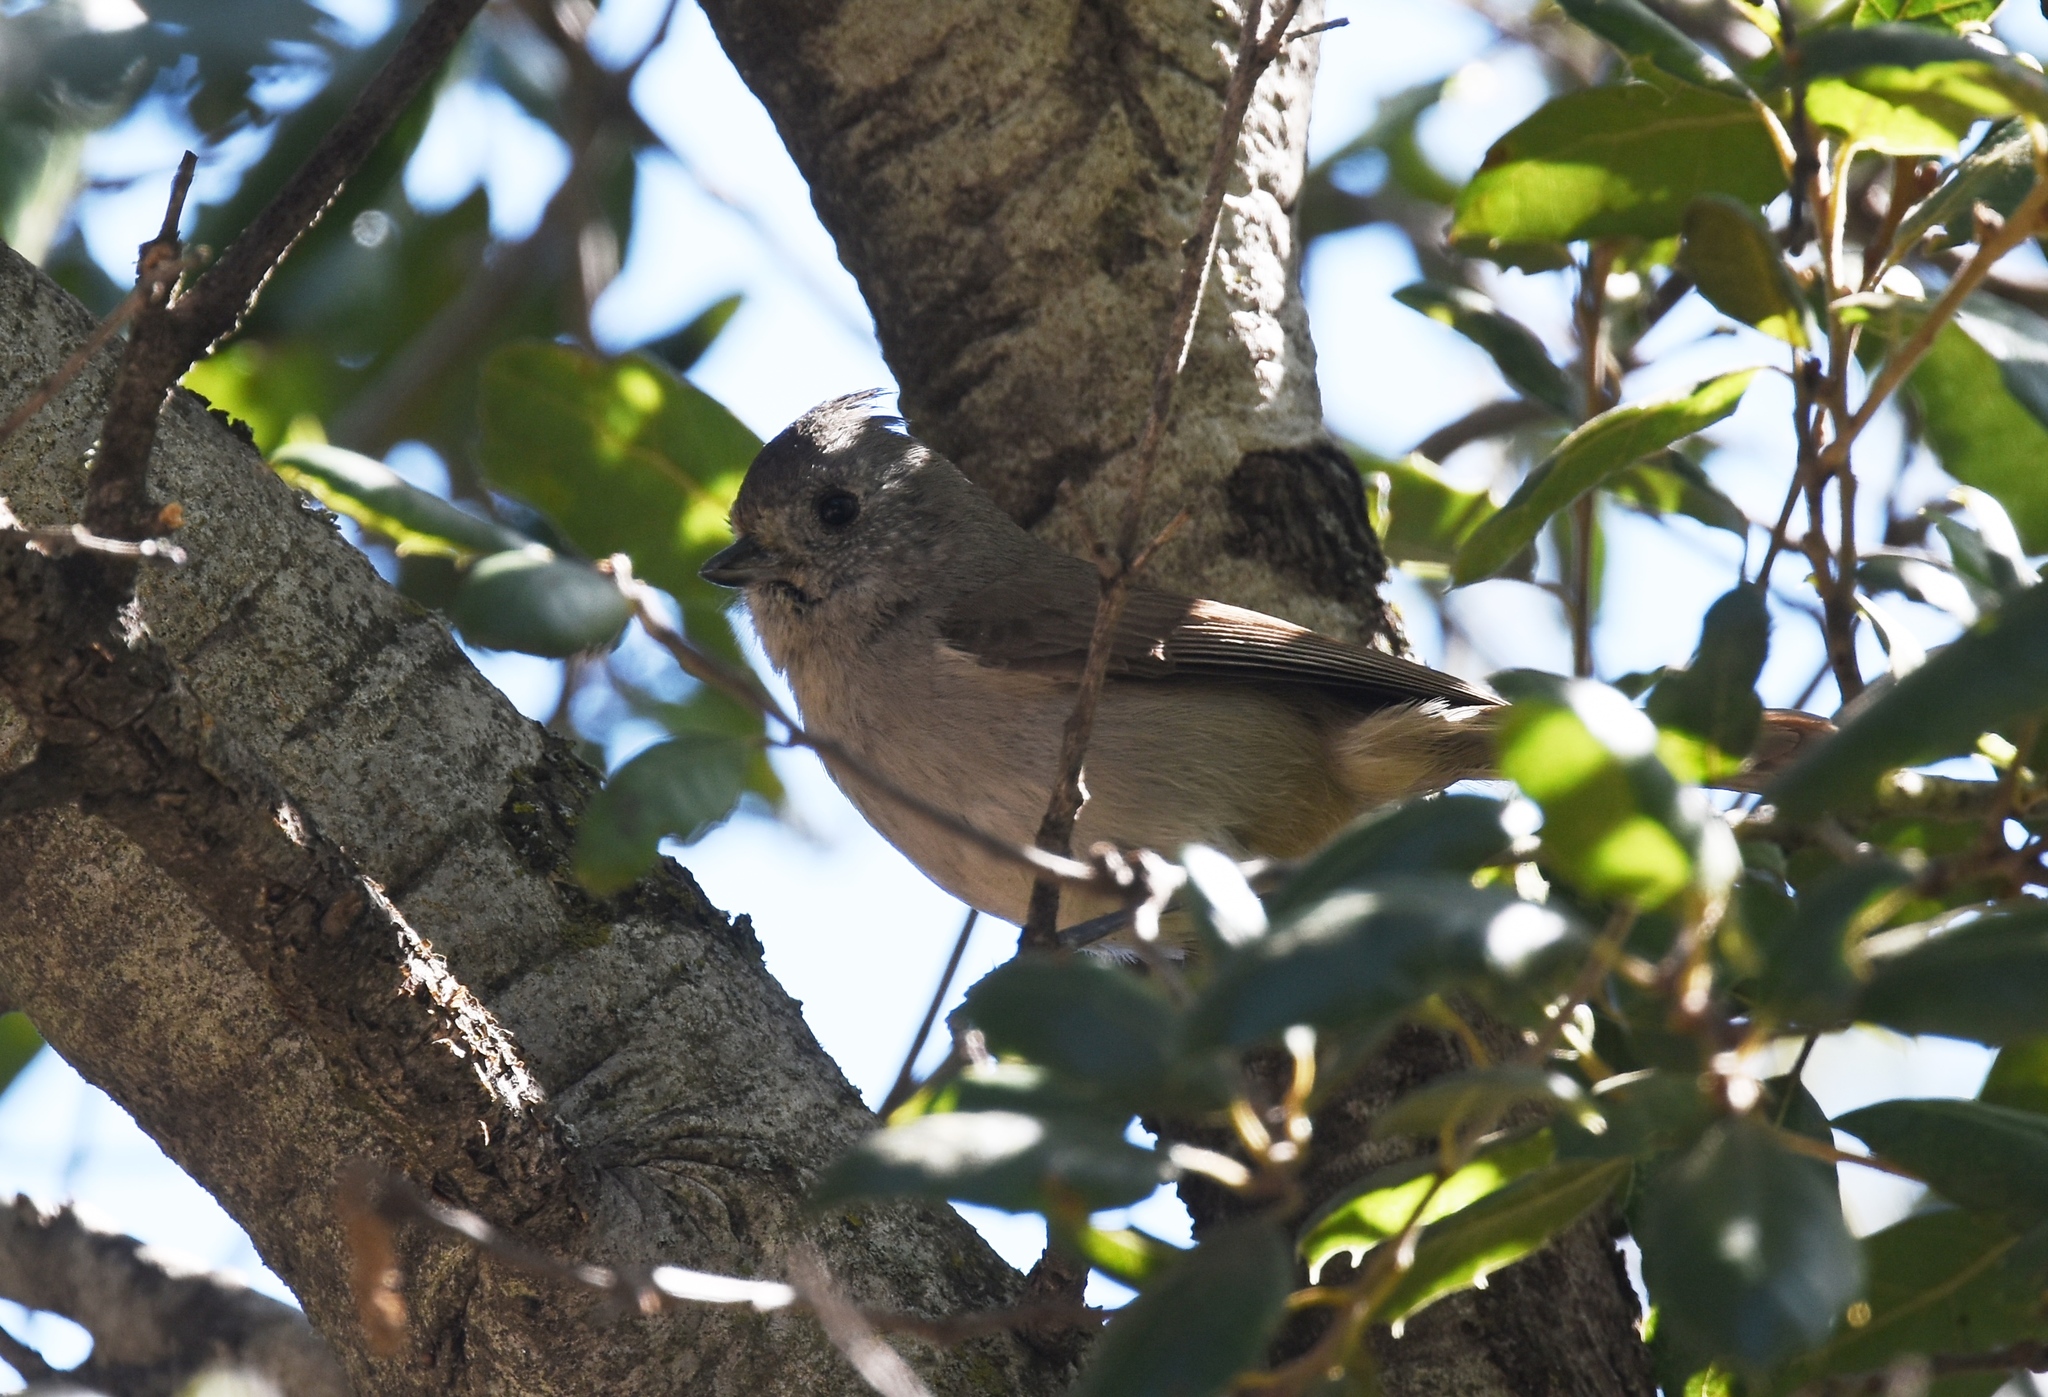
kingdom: Animalia
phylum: Chordata
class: Aves
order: Passeriformes
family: Paridae
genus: Baeolophus
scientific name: Baeolophus inornatus
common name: Oak titmouse
